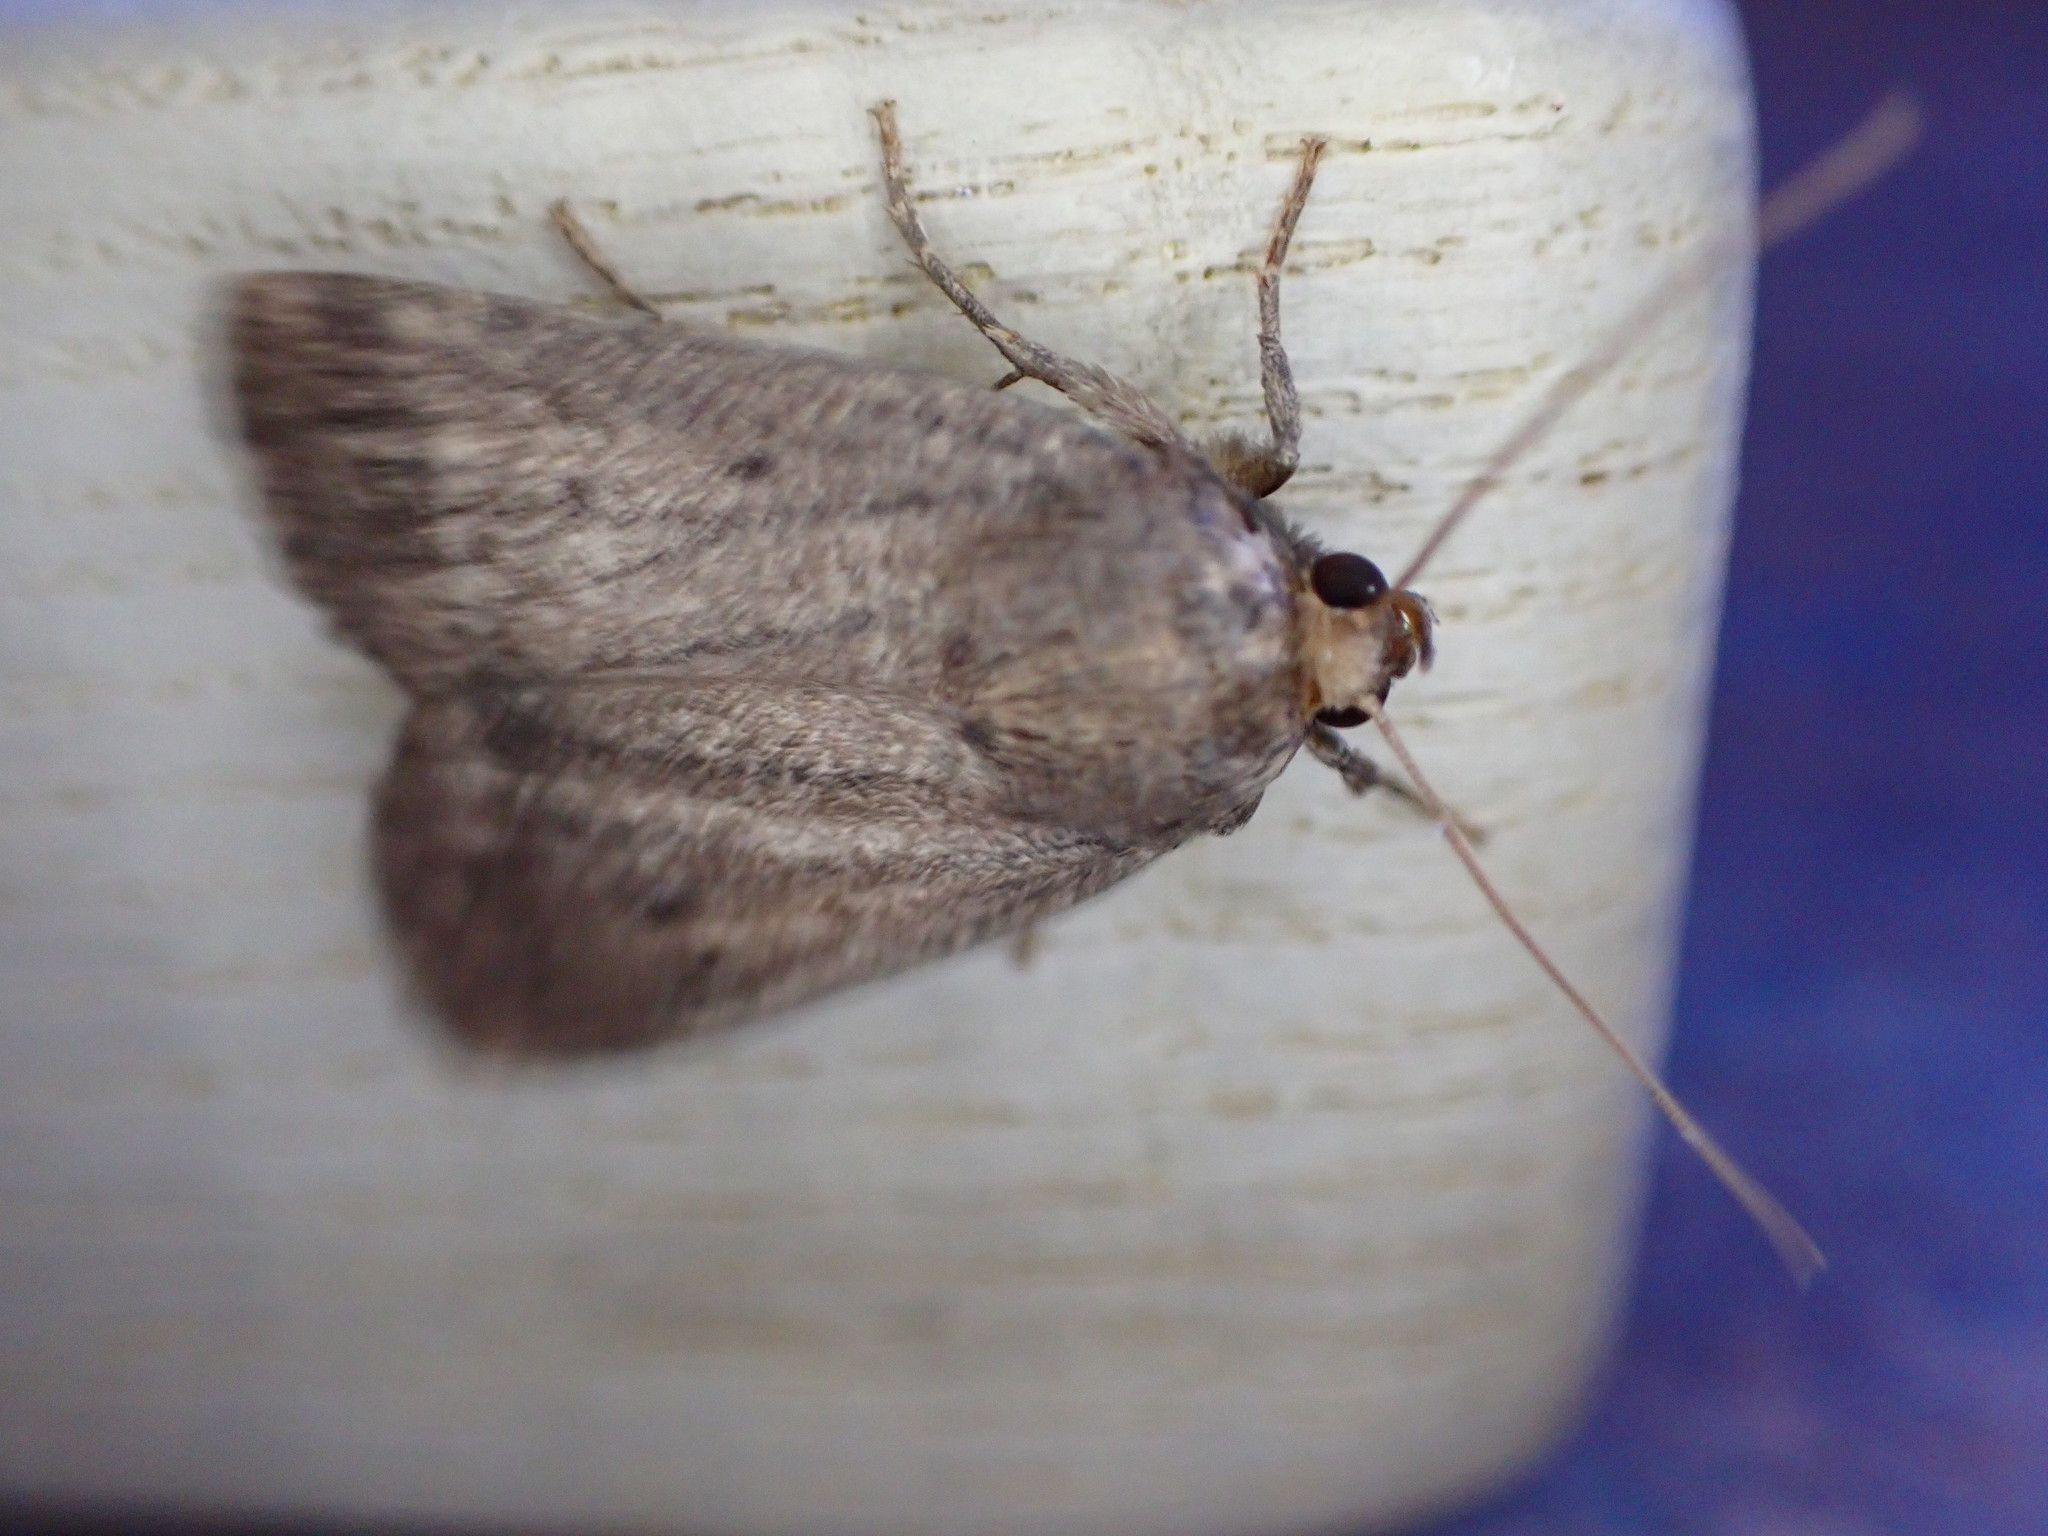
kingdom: Animalia
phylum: Arthropoda
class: Insecta
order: Lepidoptera
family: Noctuidae
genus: Amphipyra
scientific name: Amphipyra tragopoginis
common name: Mouse moth
